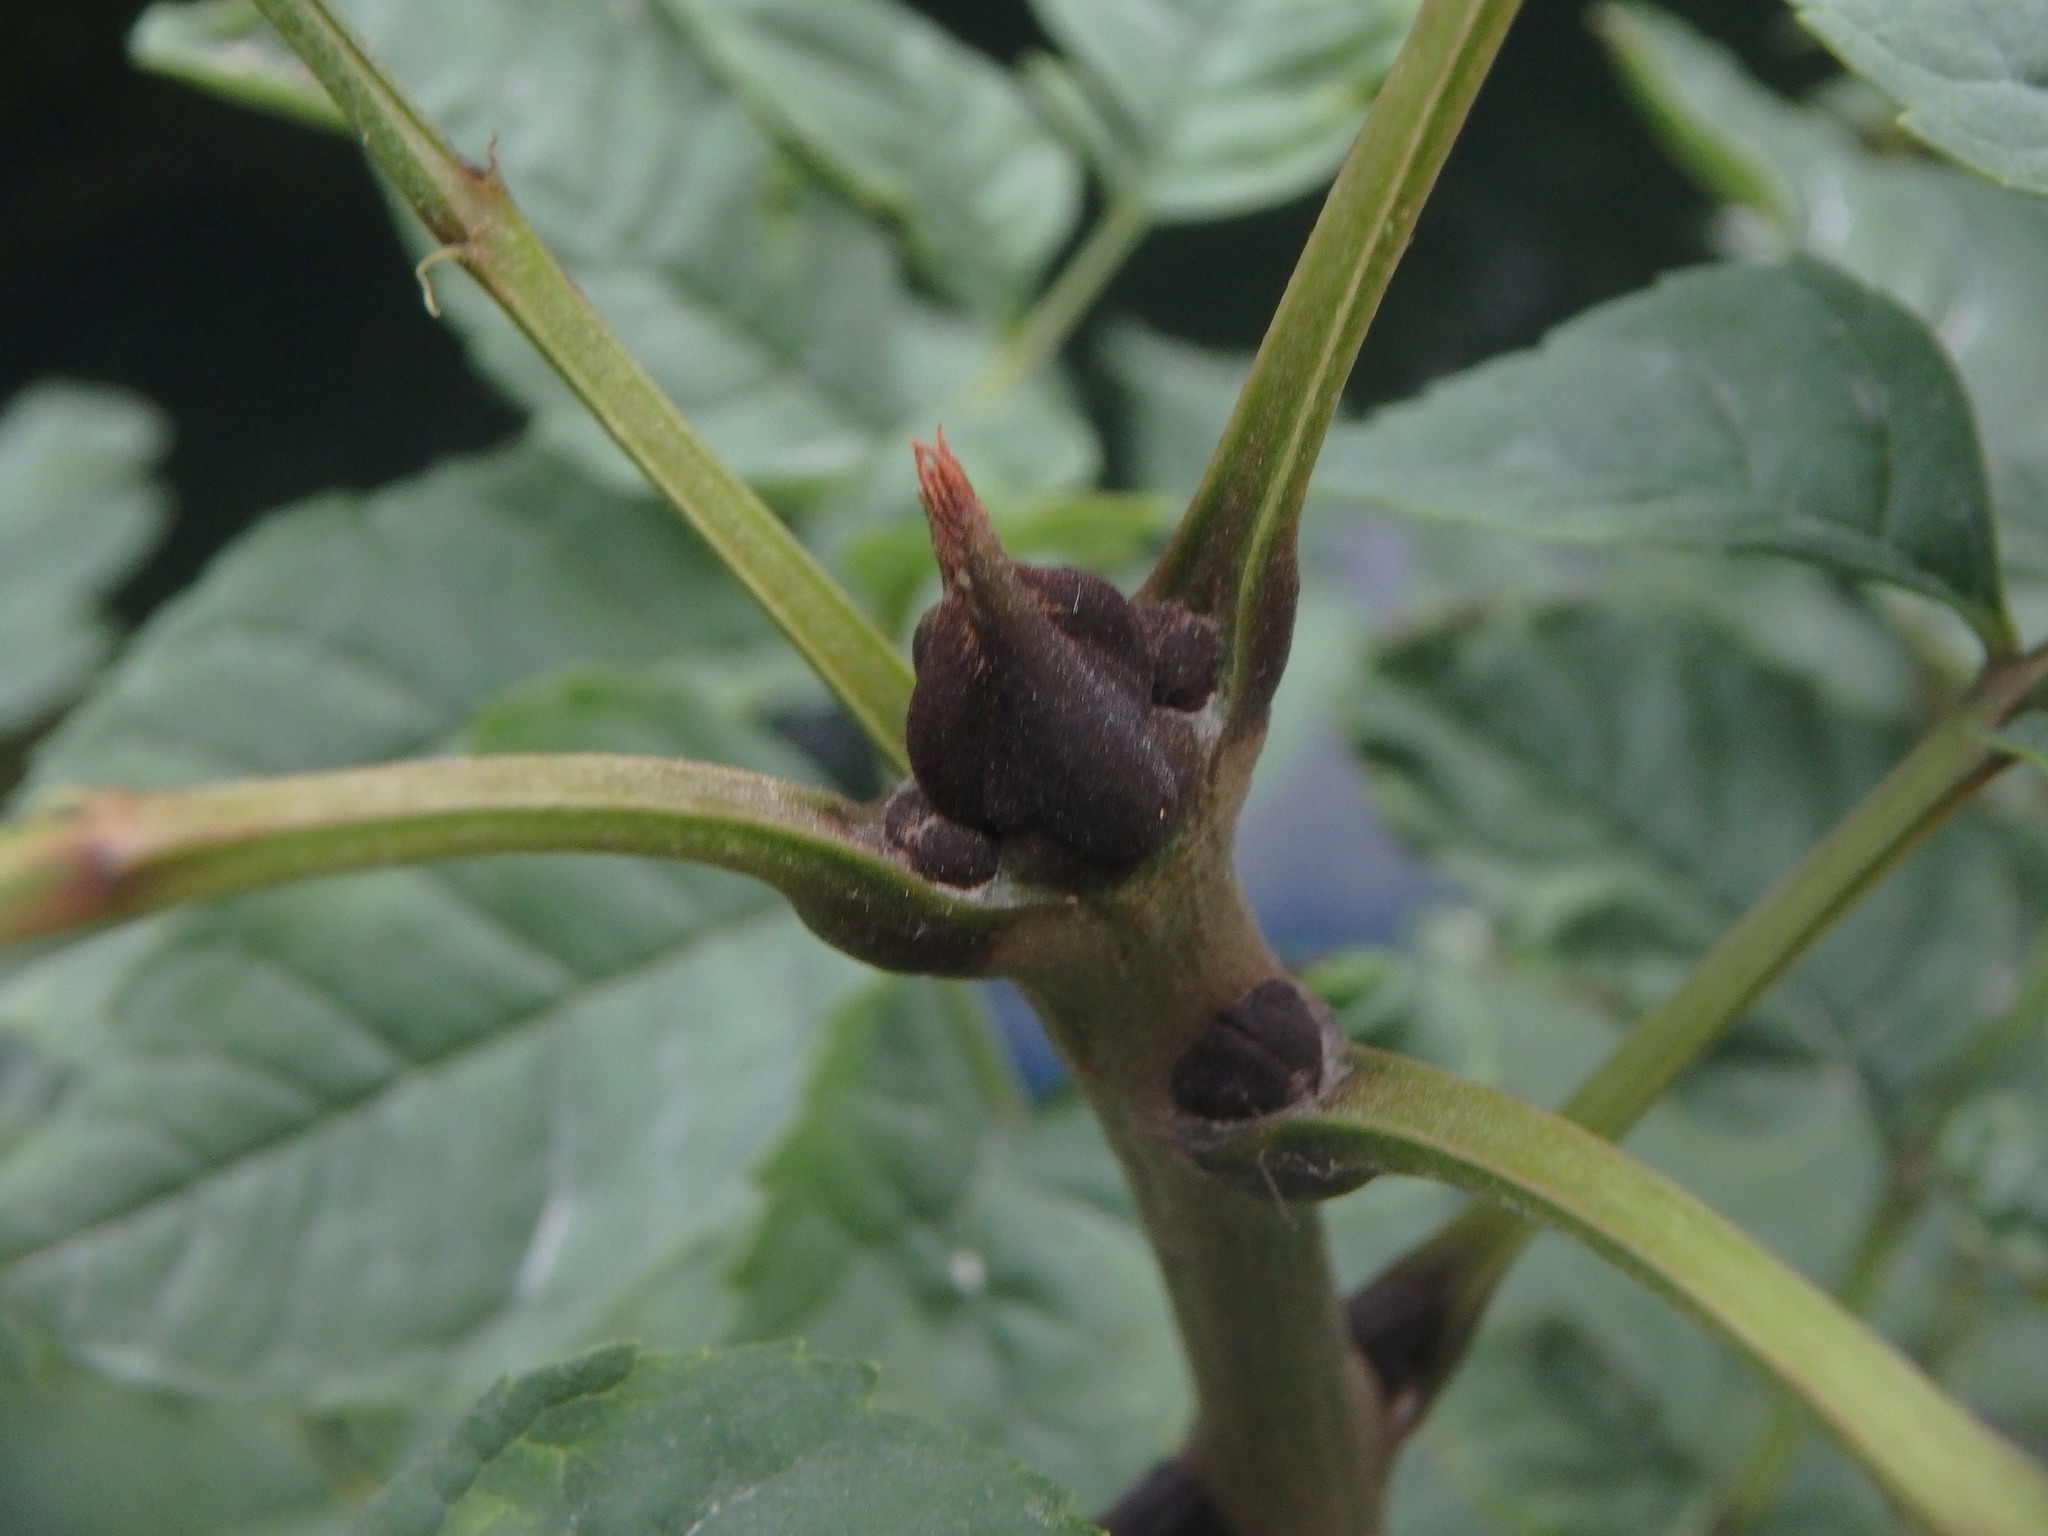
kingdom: Plantae
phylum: Tracheophyta
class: Magnoliopsida
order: Lamiales
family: Oleaceae
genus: Fraxinus
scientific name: Fraxinus excelsior
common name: European ash
